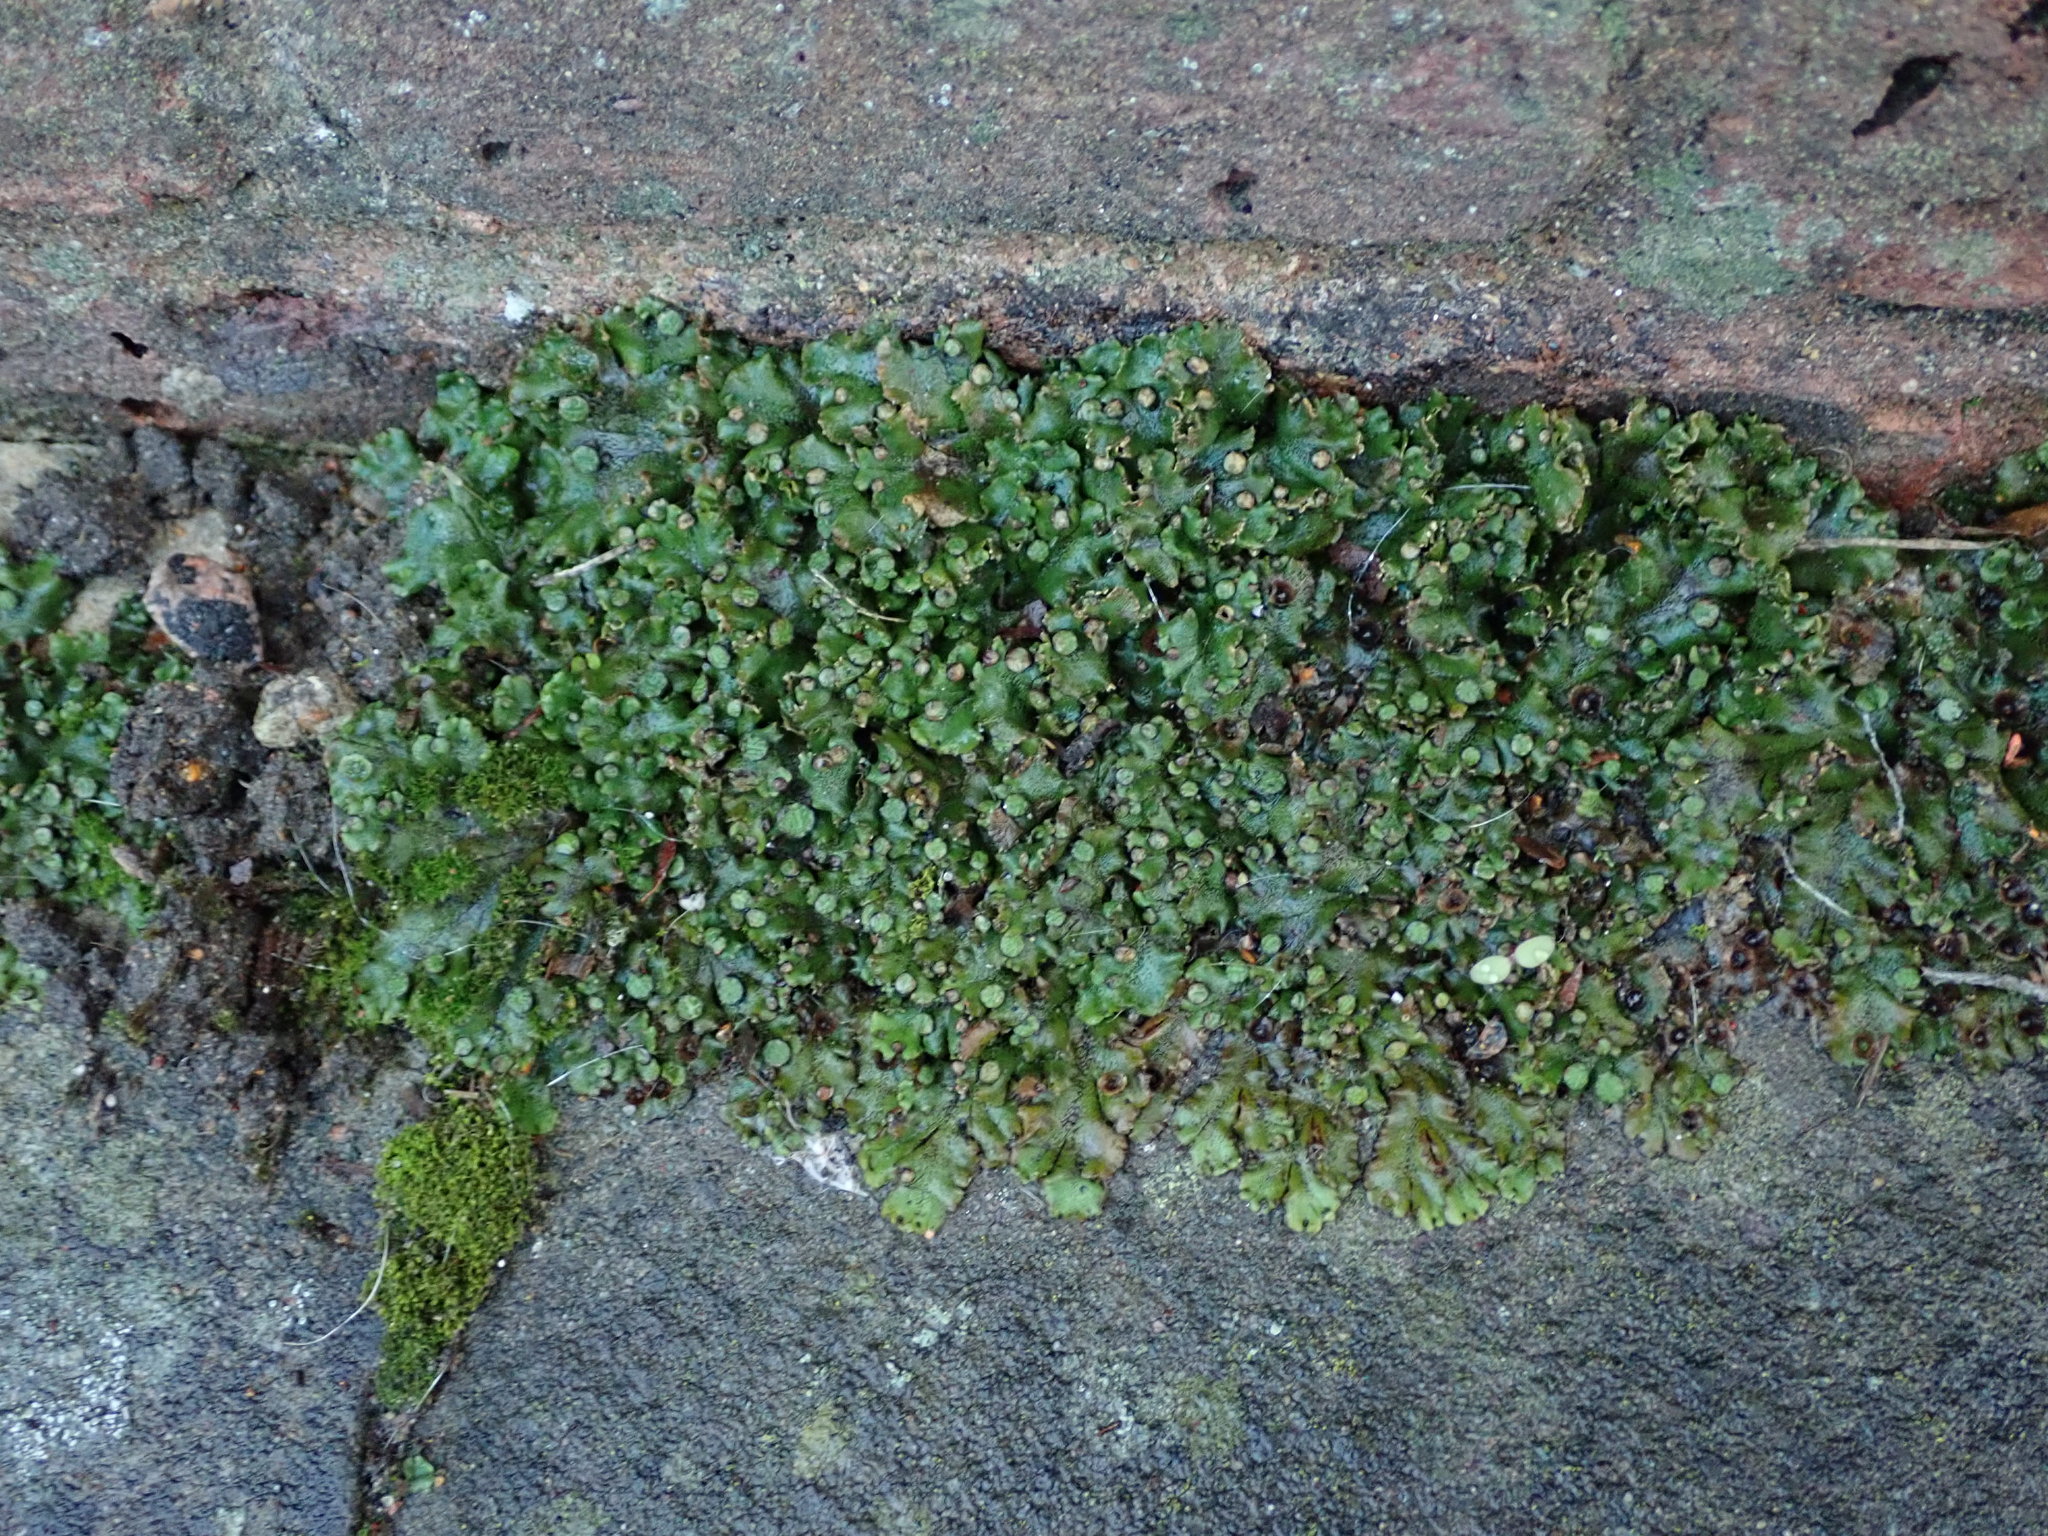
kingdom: Plantae
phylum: Marchantiophyta
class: Marchantiopsida
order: Marchantiales
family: Marchantiaceae
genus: Marchantia
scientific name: Marchantia polymorpha
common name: Common liverwort
